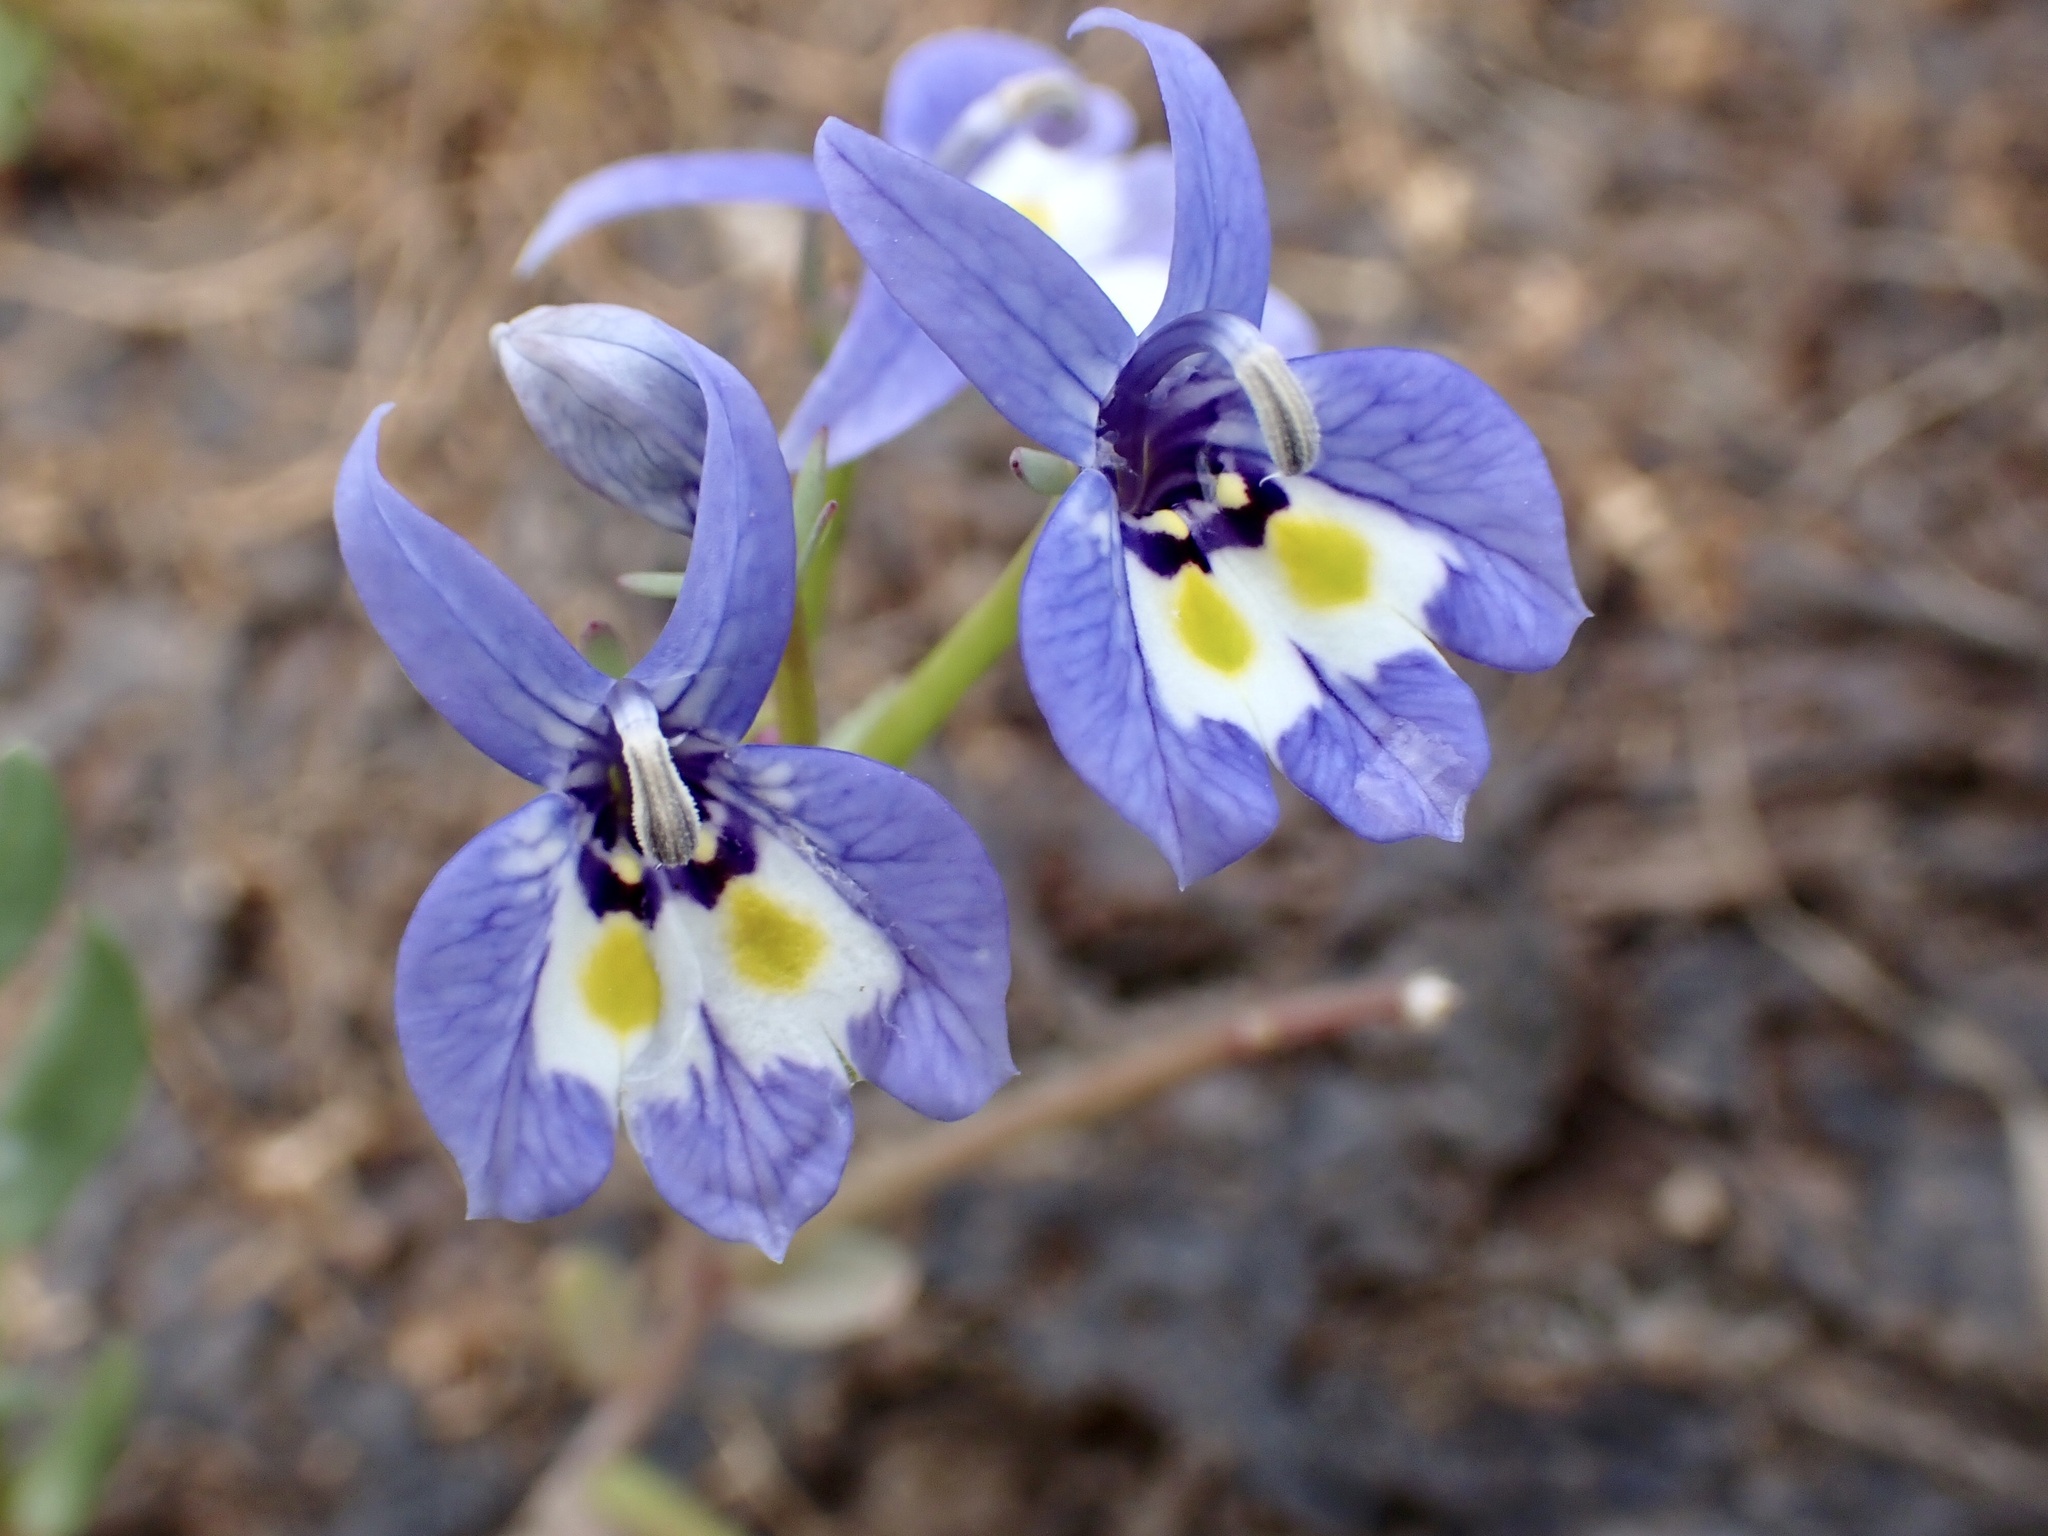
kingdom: Plantae
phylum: Tracheophyta
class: Magnoliopsida
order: Asterales
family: Campanulaceae
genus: Downingia
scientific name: Downingia insignis
